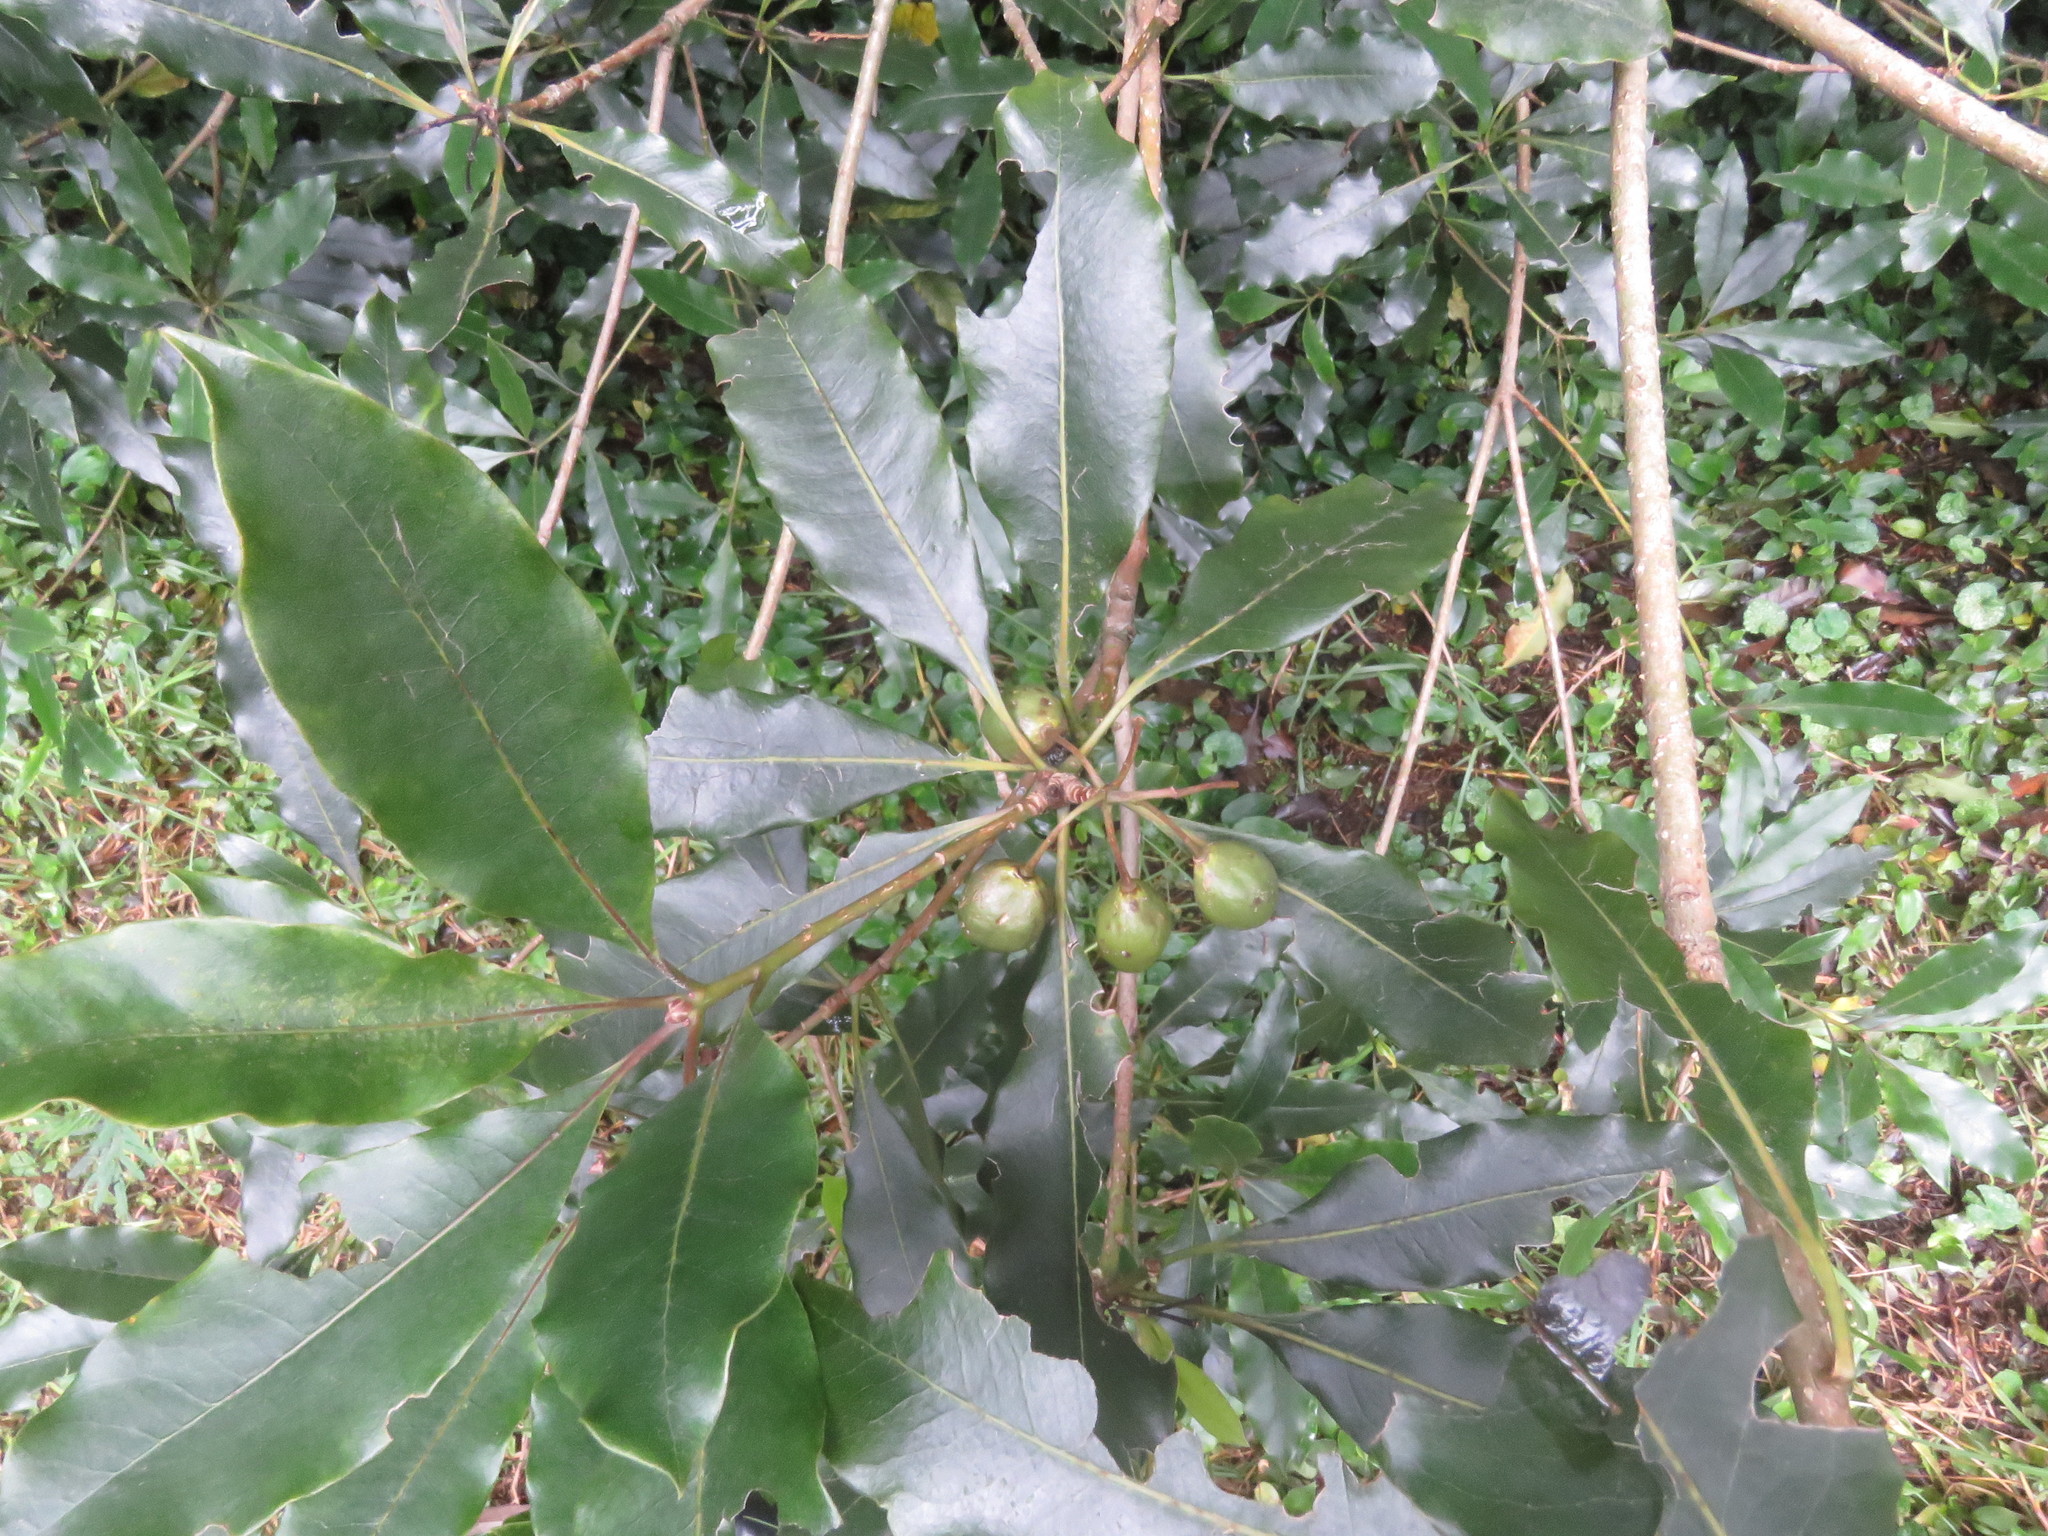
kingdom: Plantae
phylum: Tracheophyta
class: Magnoliopsida
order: Apiales
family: Pittosporaceae
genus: Pittosporum
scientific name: Pittosporum undulatum
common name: Australian cheesewood
